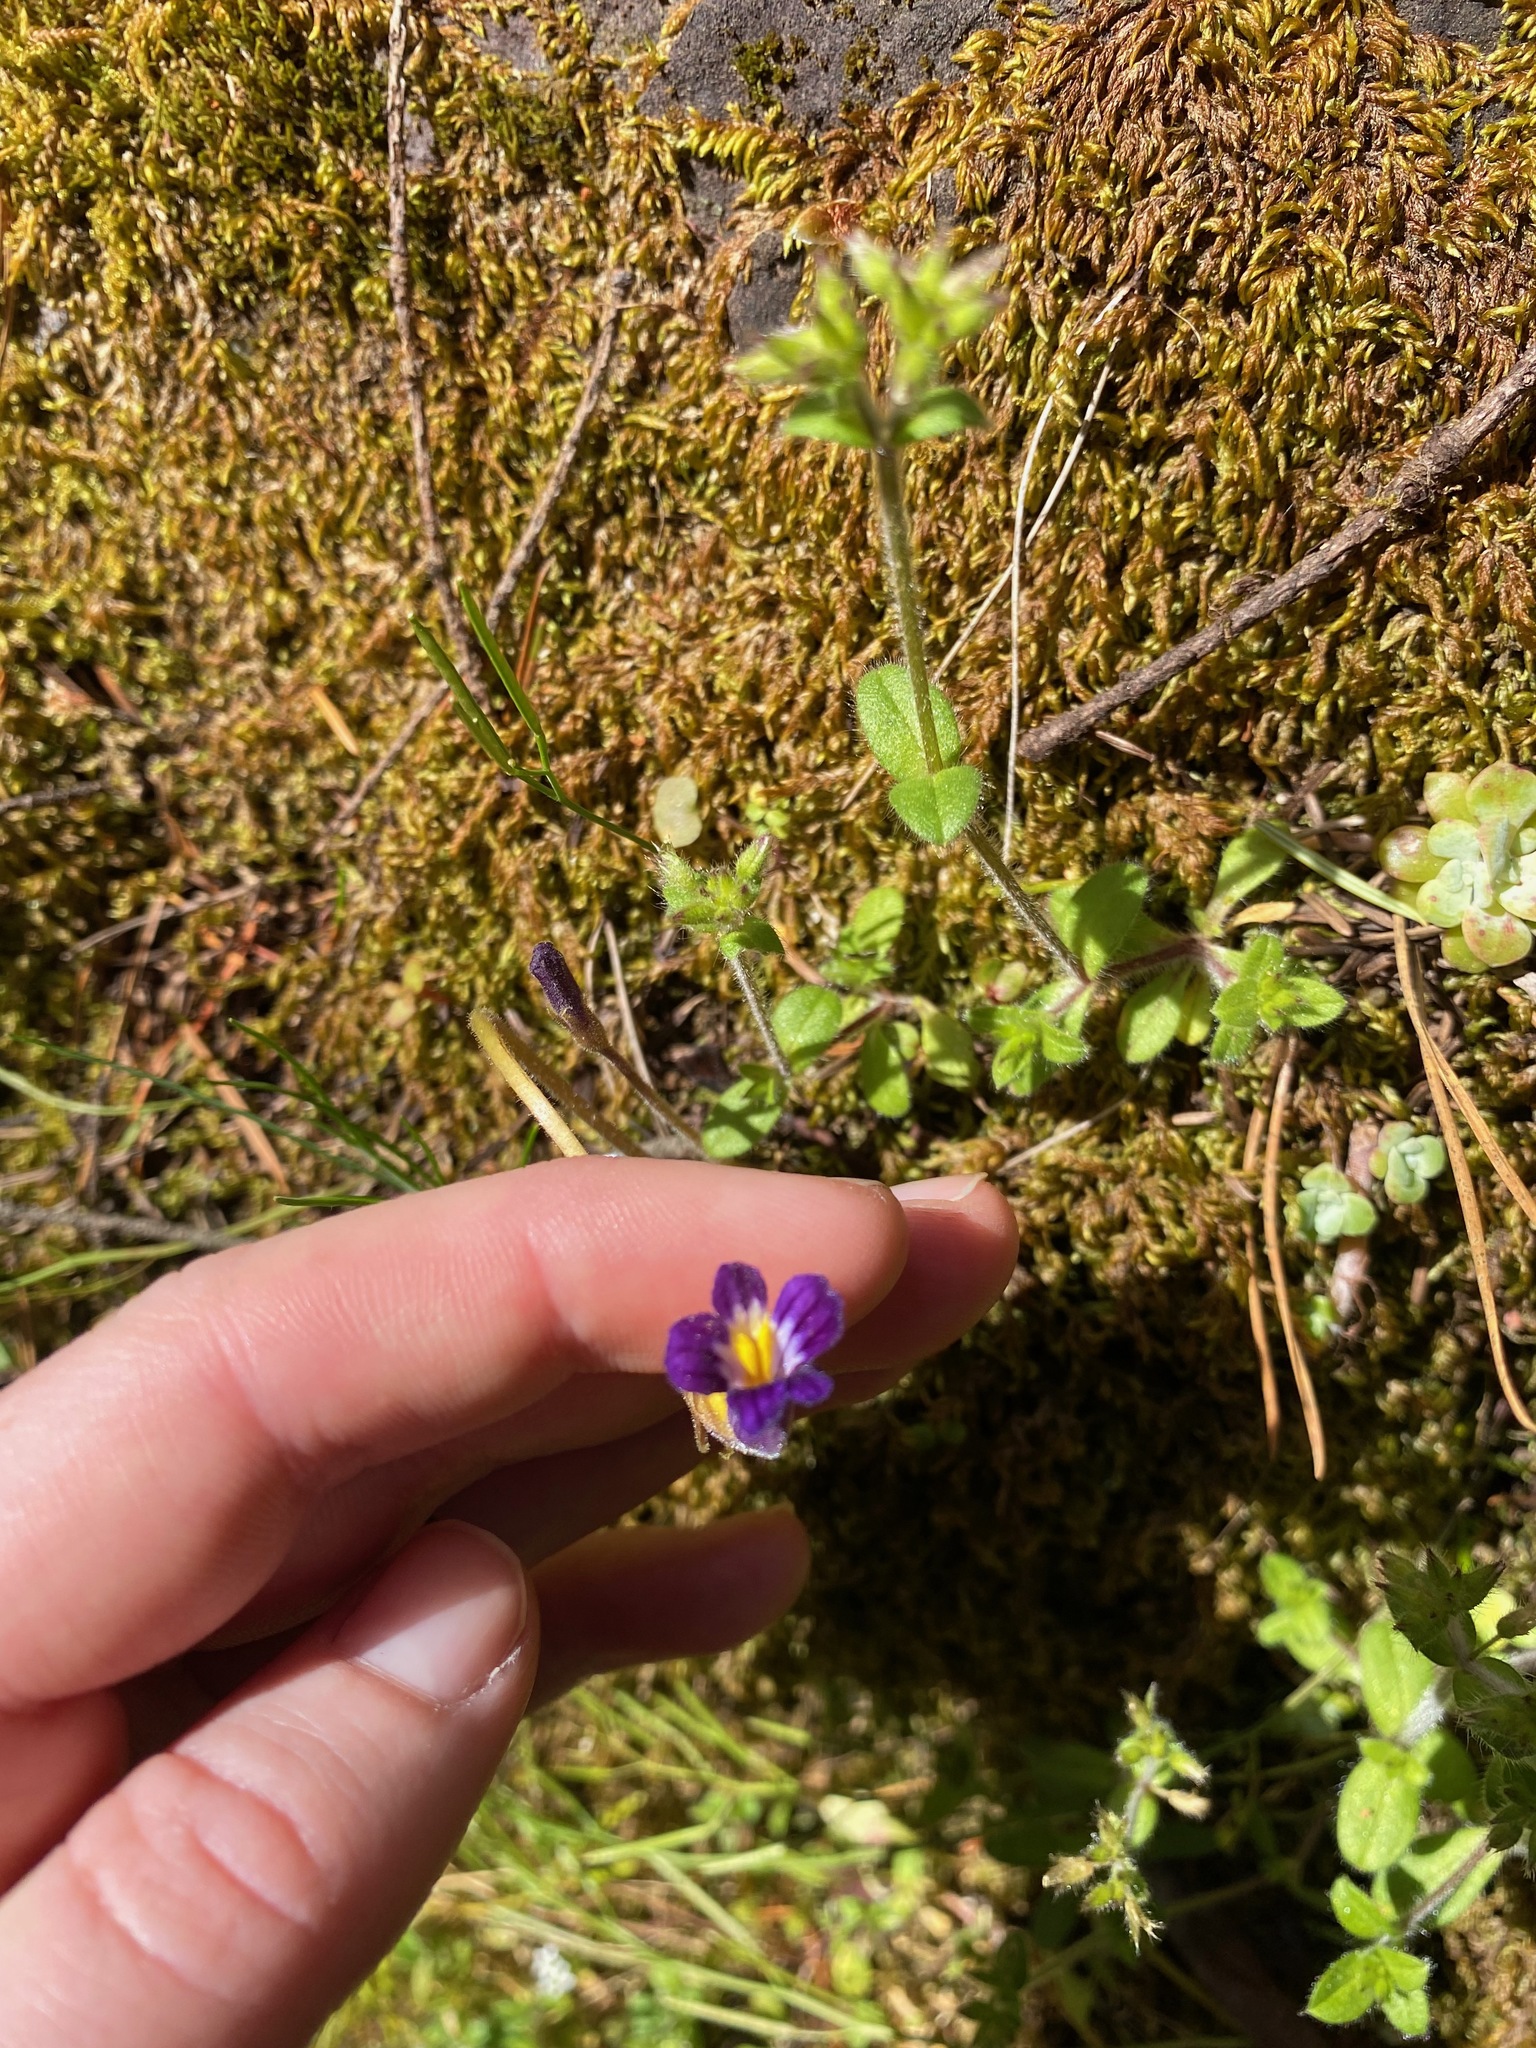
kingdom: Plantae
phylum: Tracheophyta
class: Magnoliopsida
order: Lamiales
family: Orobanchaceae
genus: Aphyllon
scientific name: Aphyllon uniflorum
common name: One-flowered broomrape
